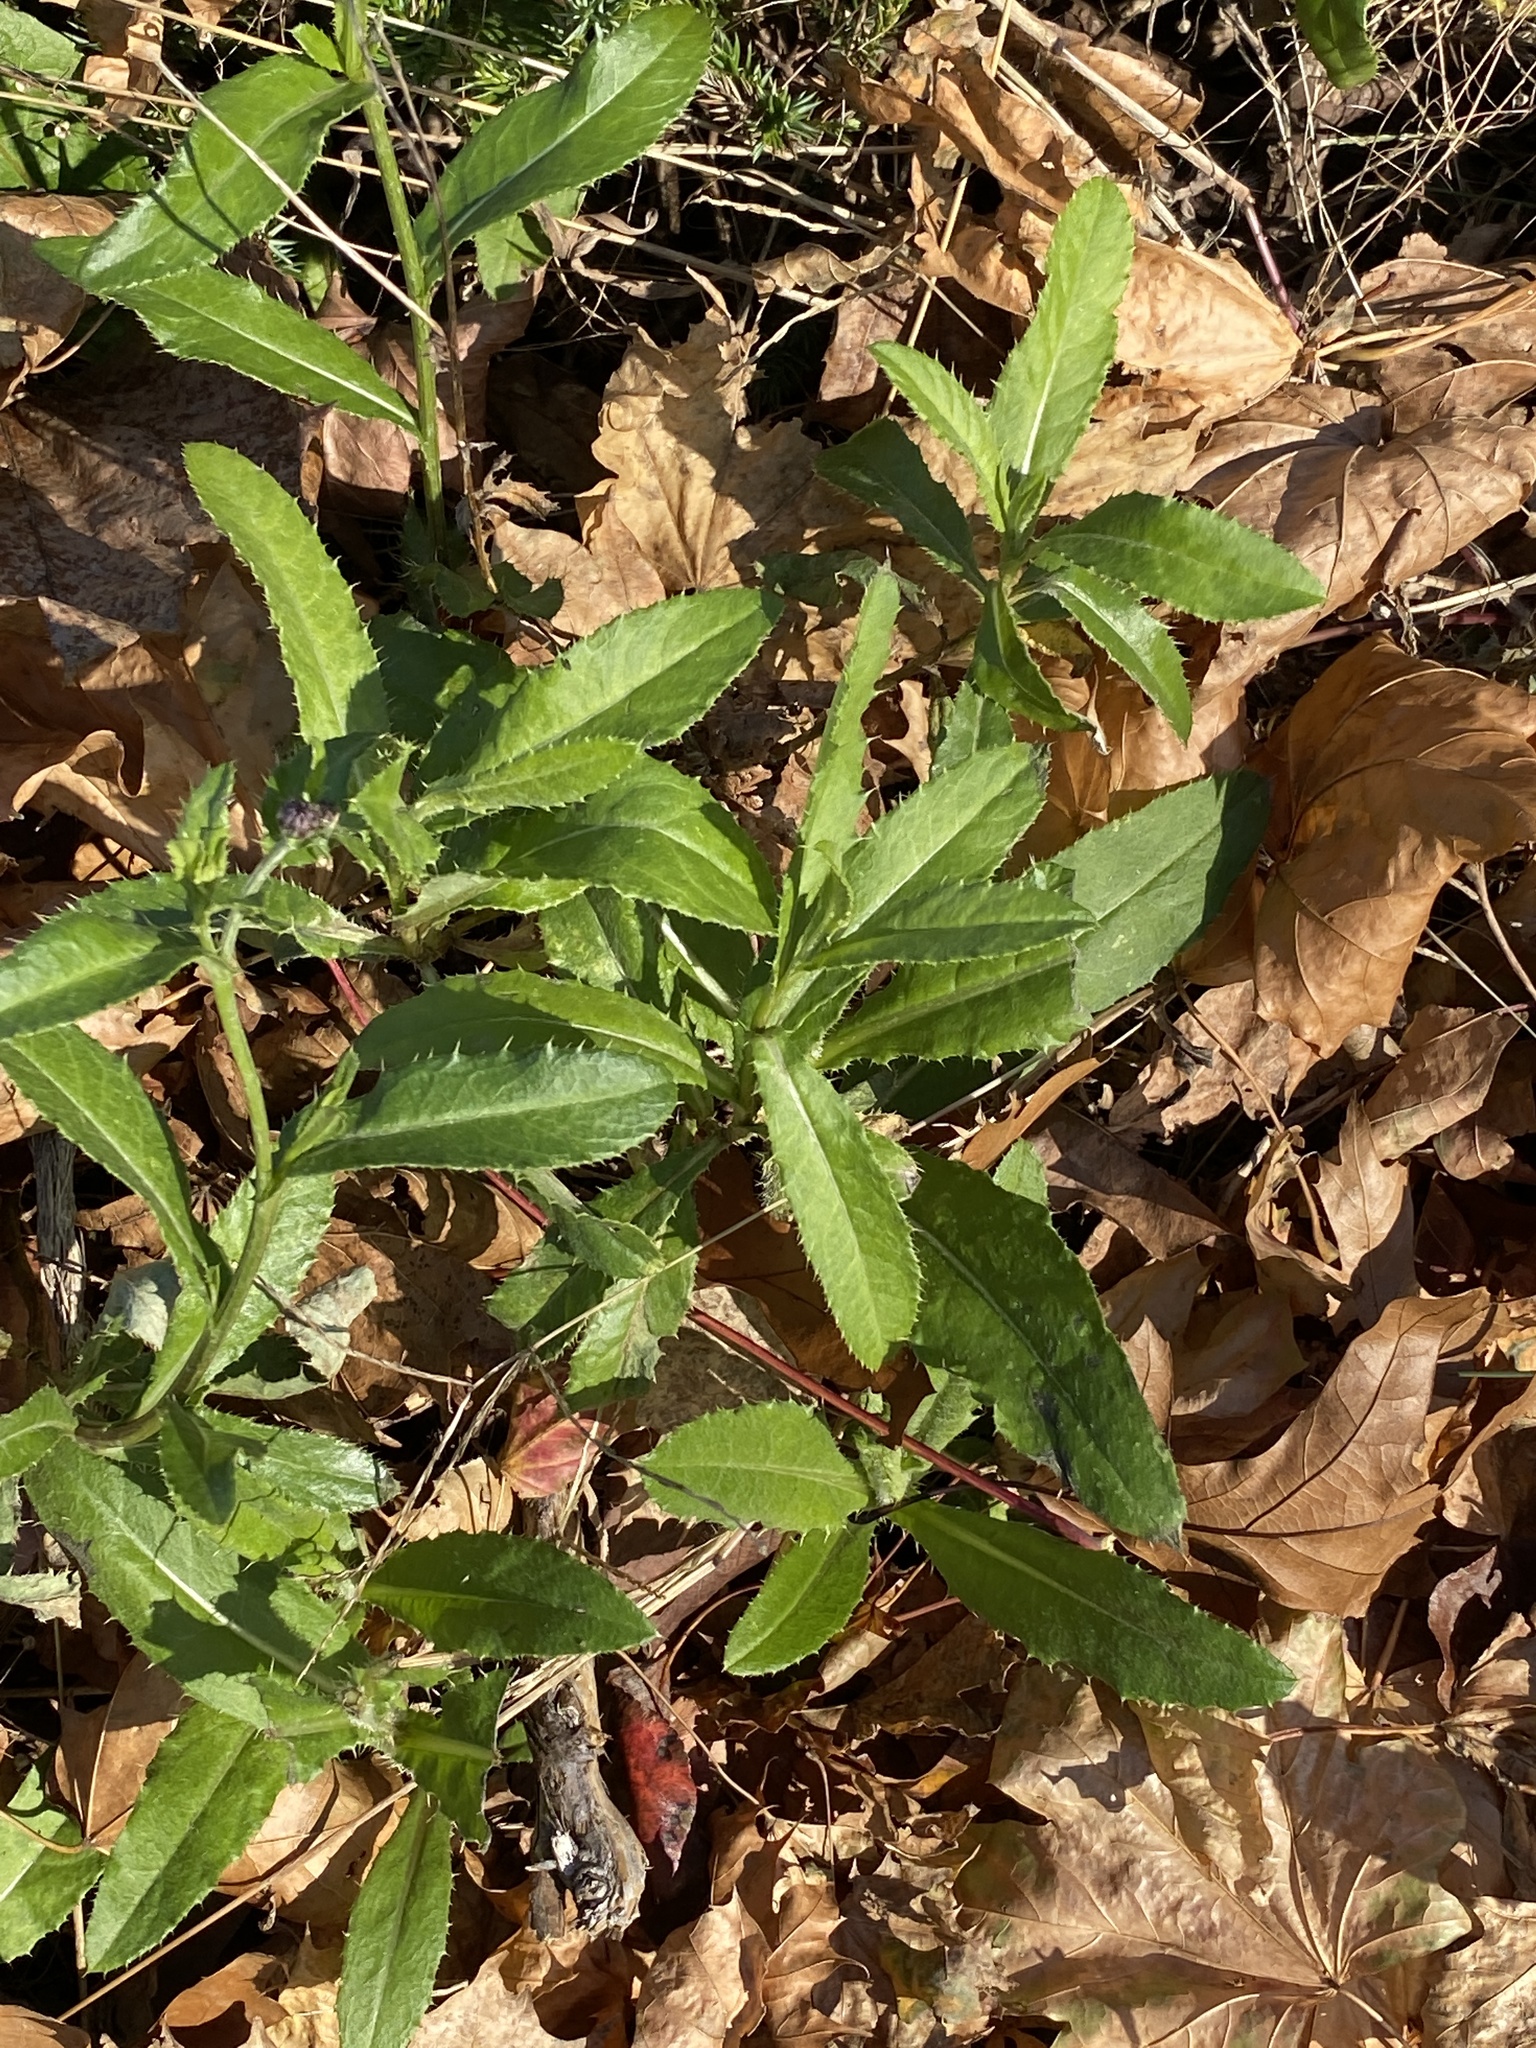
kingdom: Plantae
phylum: Tracheophyta
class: Magnoliopsida
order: Asterales
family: Asteraceae
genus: Cirsium
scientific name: Cirsium arvense
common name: Creeping thistle
